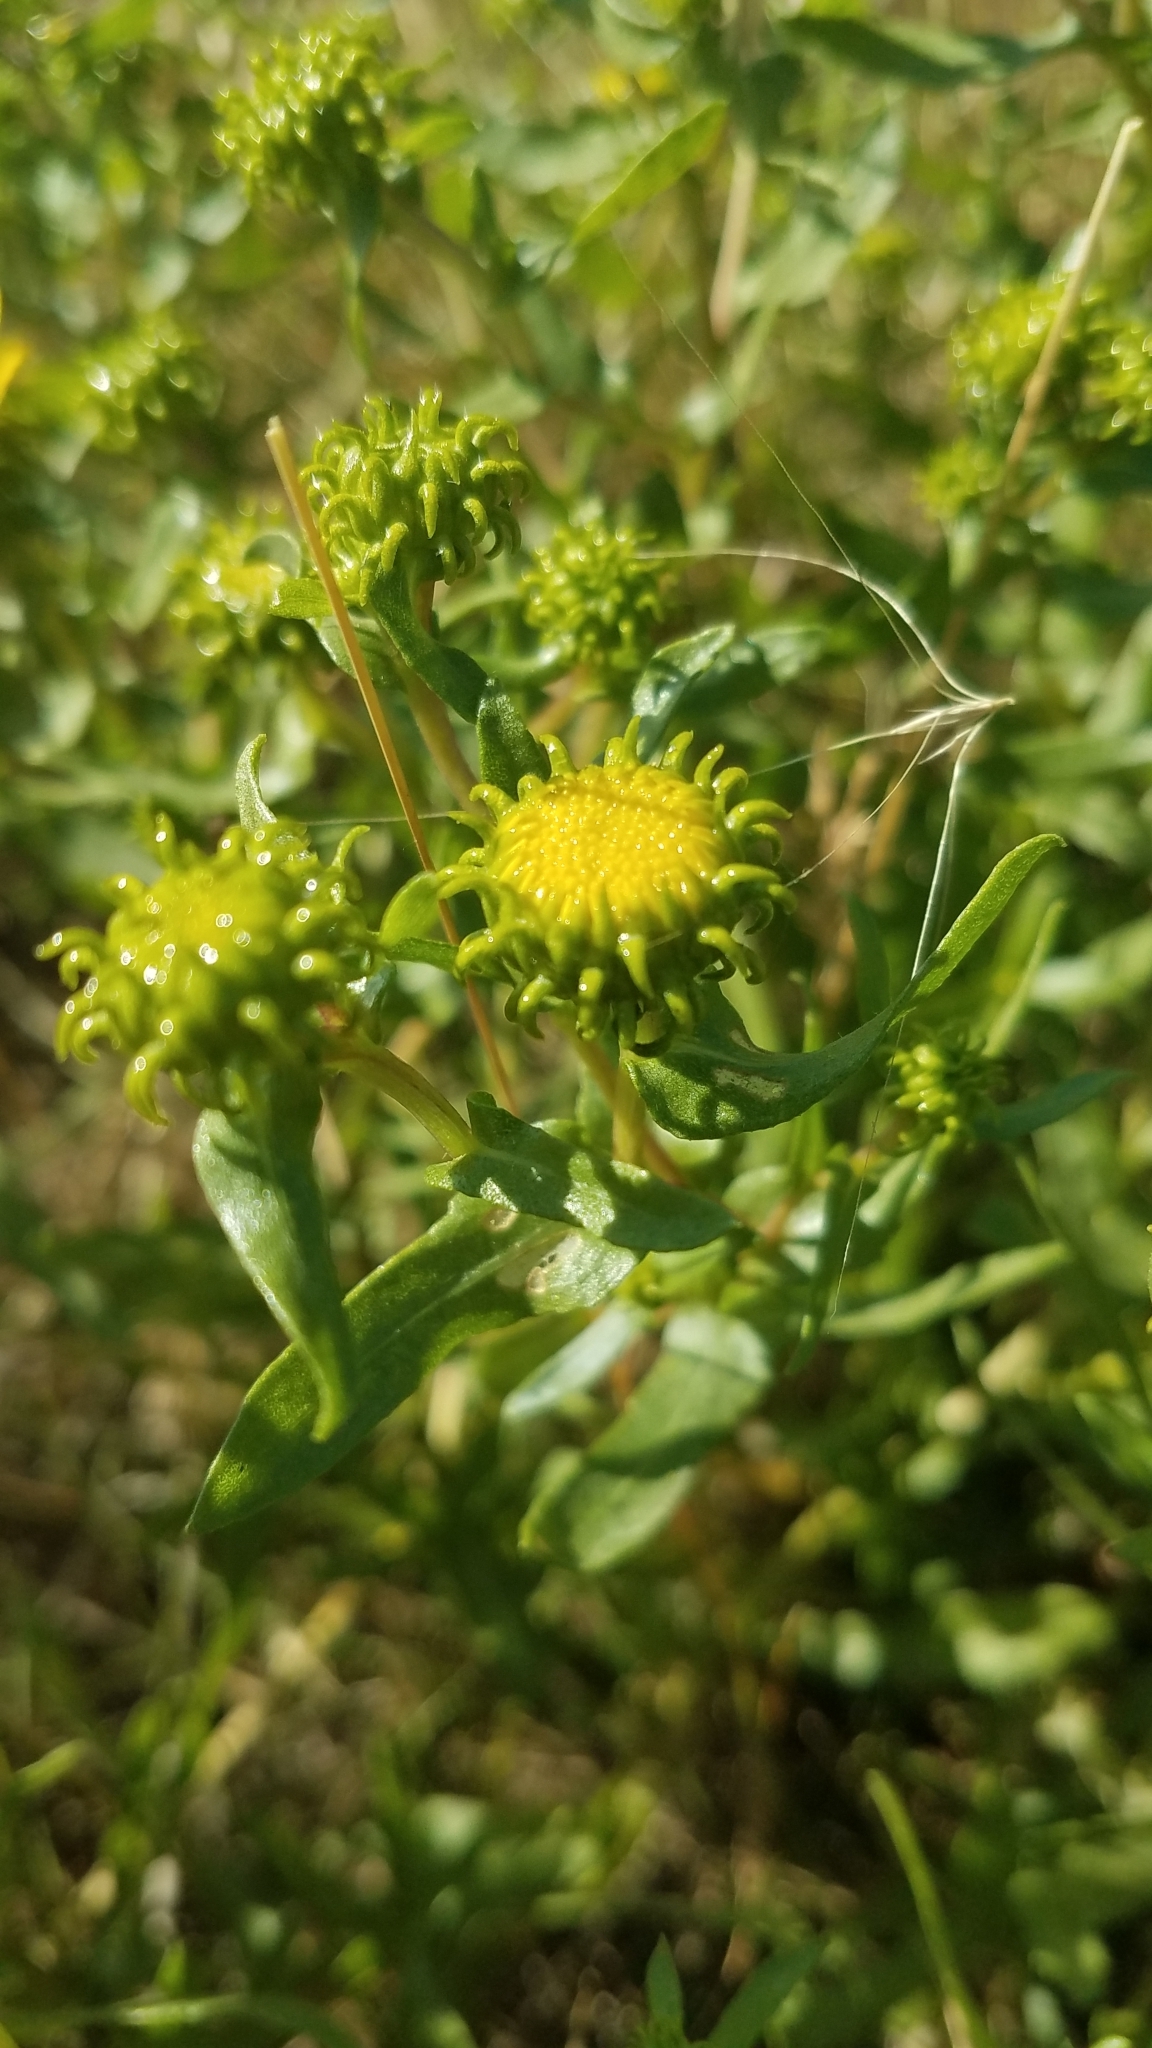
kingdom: Plantae
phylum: Tracheophyta
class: Magnoliopsida
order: Asterales
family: Asteraceae
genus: Grindelia
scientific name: Grindelia squarrosa
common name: Curly-cup gumweed
